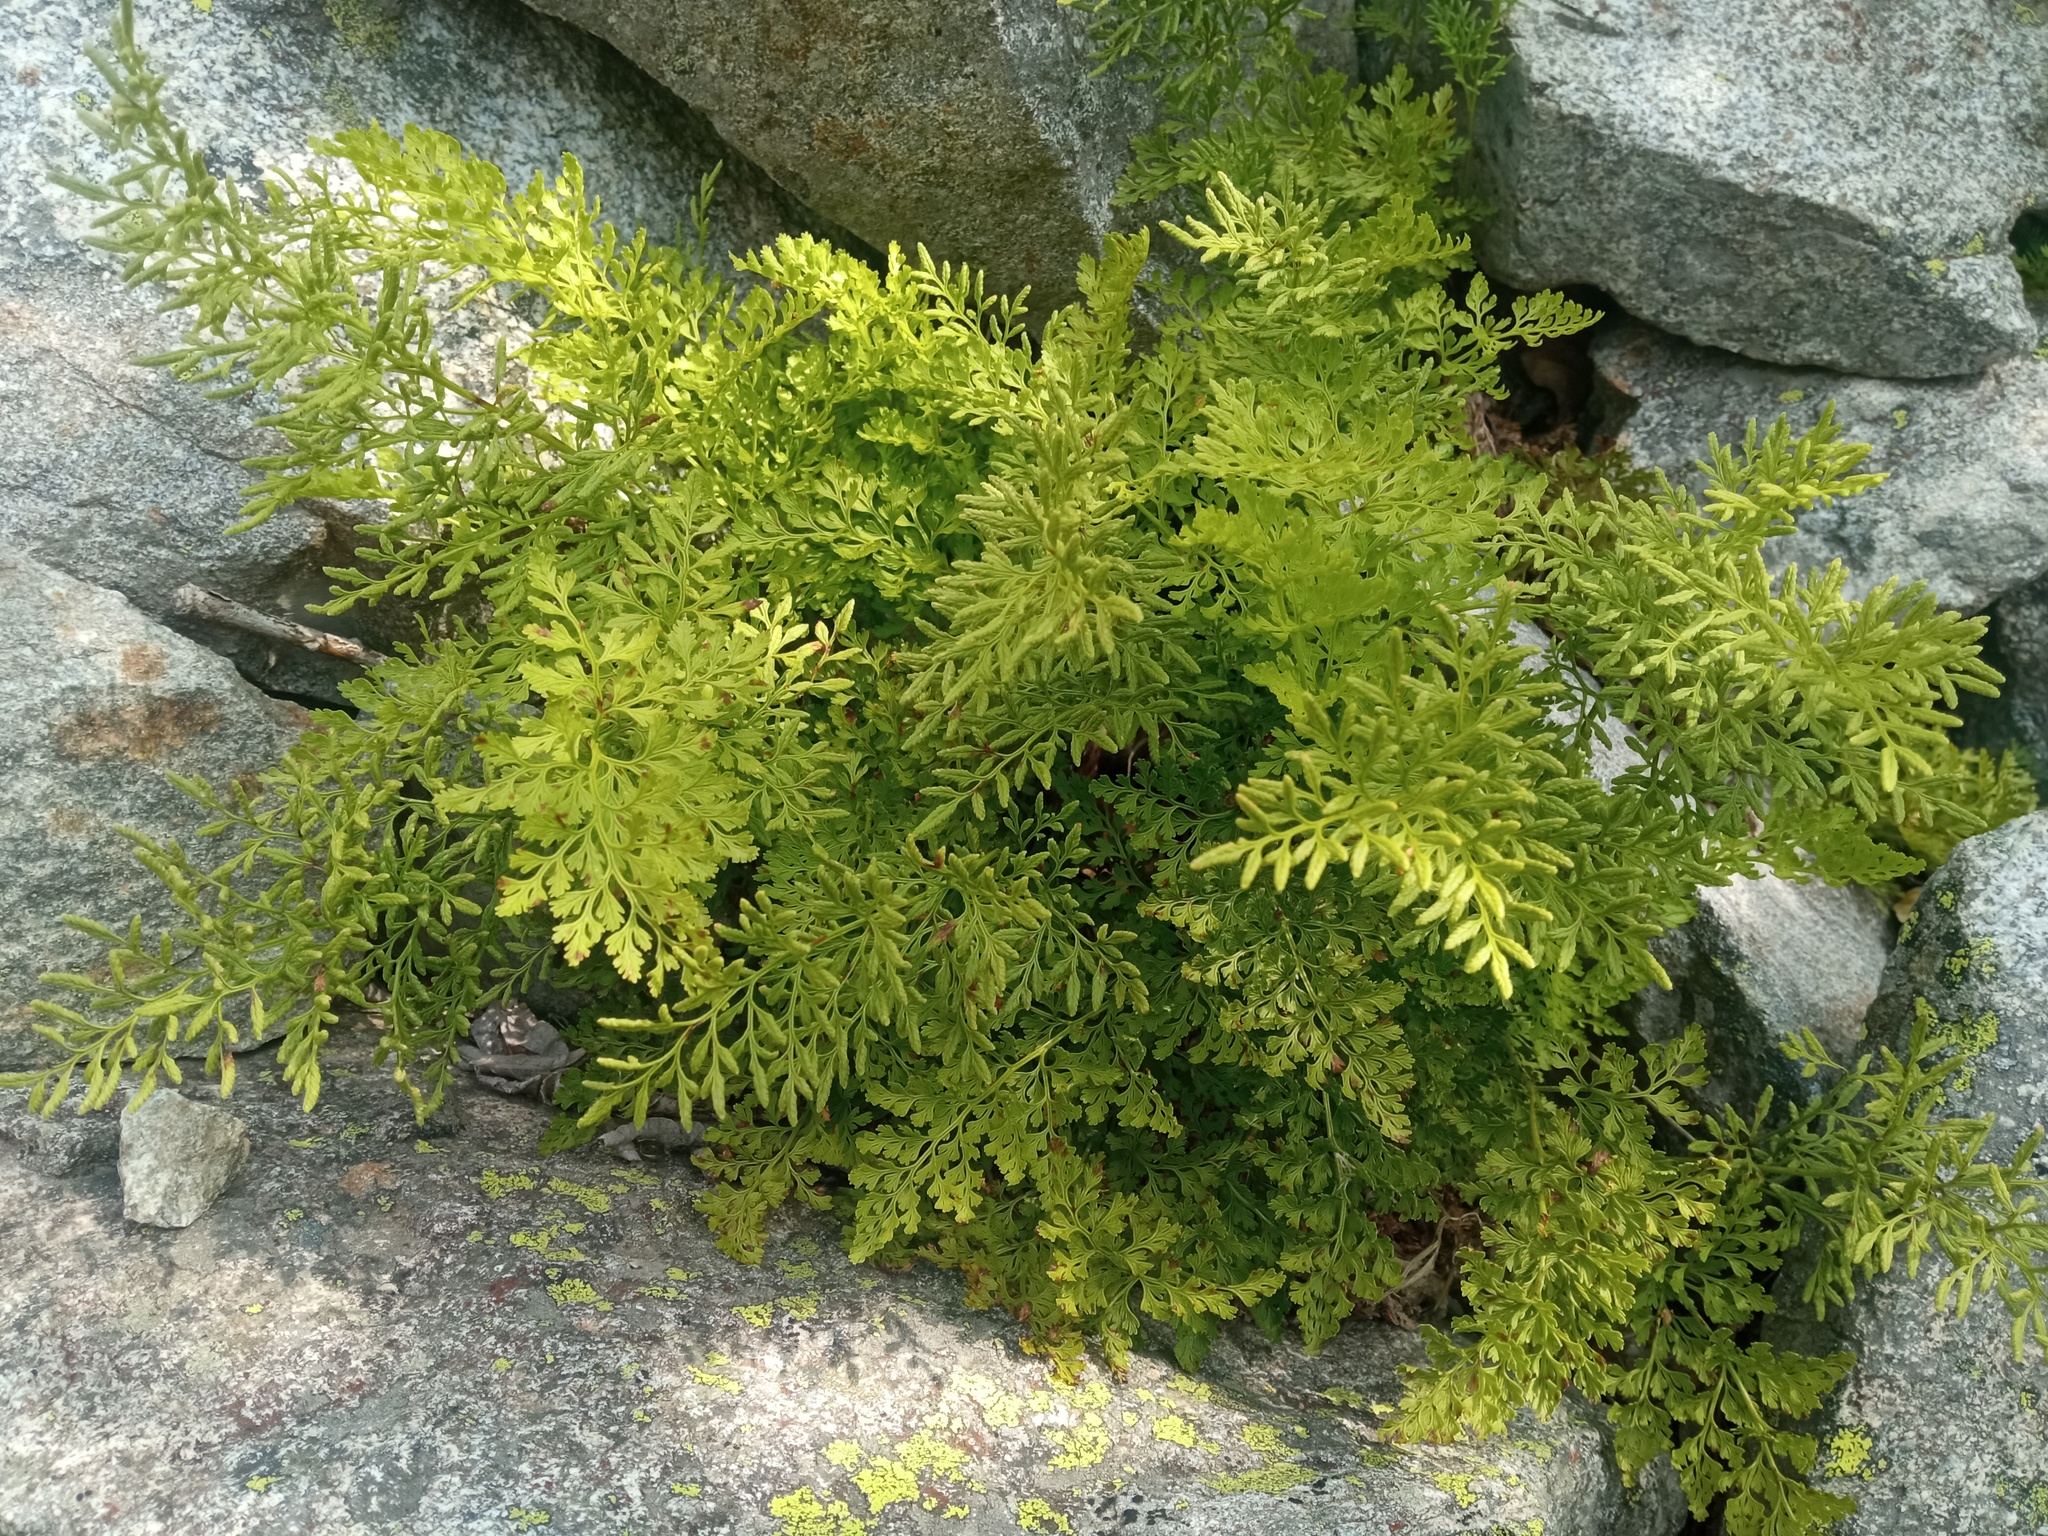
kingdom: Plantae
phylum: Tracheophyta
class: Polypodiopsida
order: Polypodiales
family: Pteridaceae
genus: Cryptogramma
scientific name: Cryptogramma crispa
